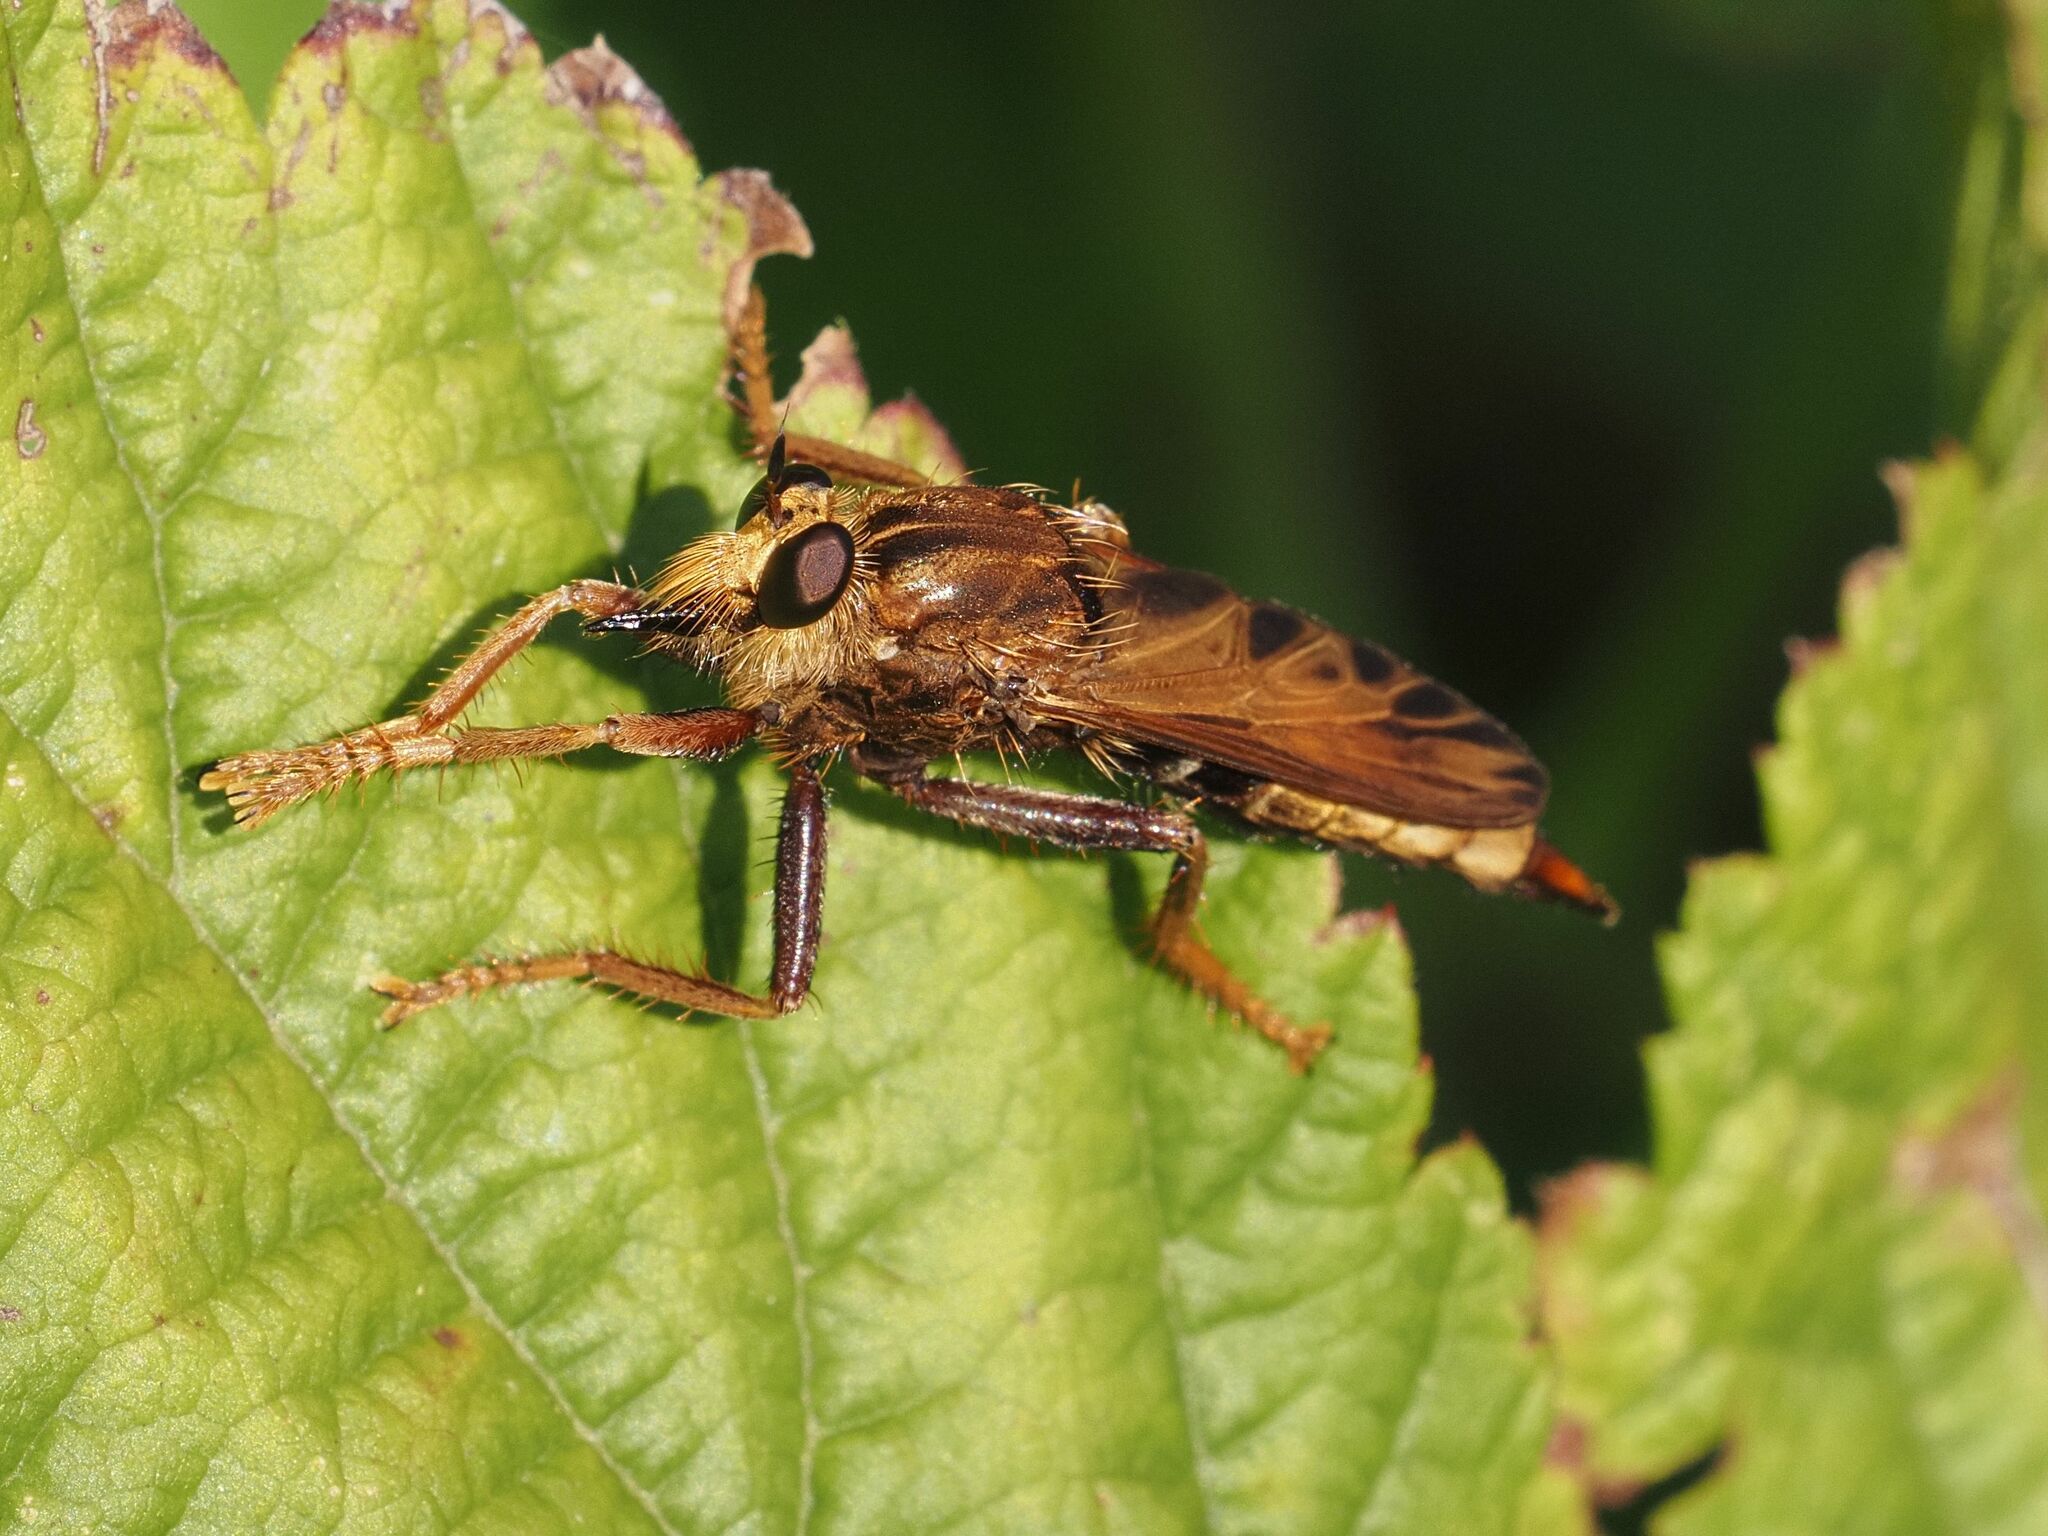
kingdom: Animalia
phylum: Arthropoda
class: Insecta
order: Diptera
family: Asilidae
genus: Asilus
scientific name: Asilus crabroniformis
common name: Hornet robberfly
